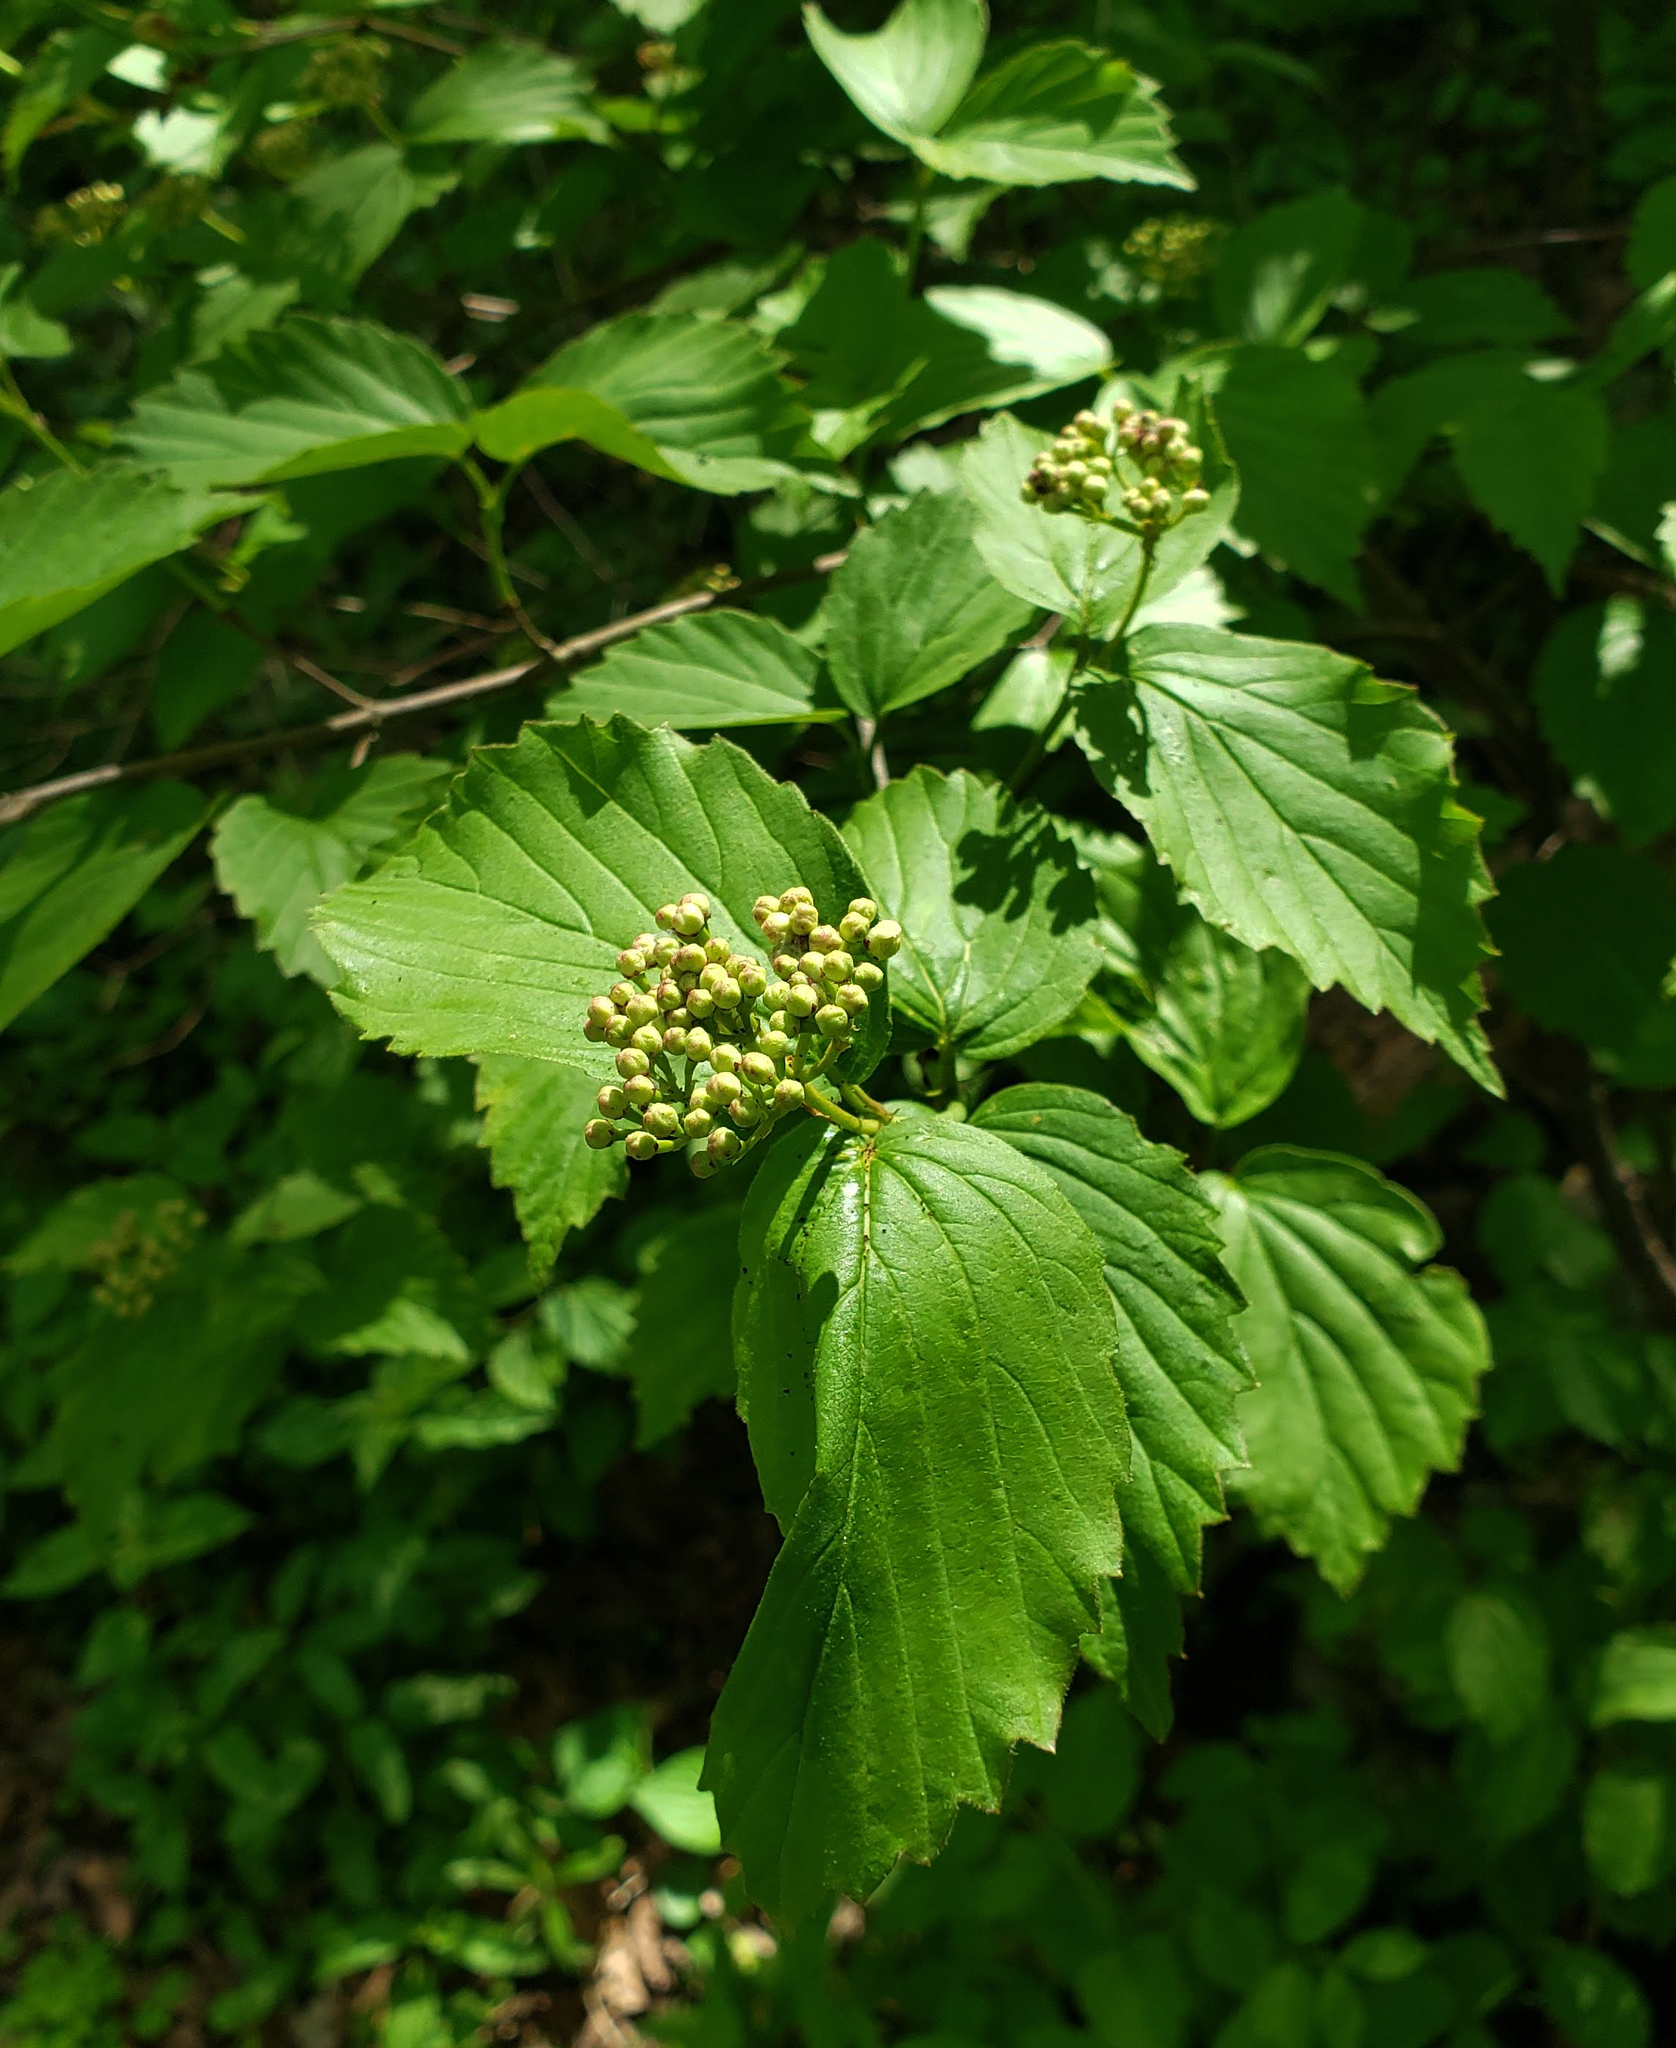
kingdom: Plantae
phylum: Tracheophyta
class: Magnoliopsida
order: Dipsacales
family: Viburnaceae
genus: Viburnum
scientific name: Viburnum rafinesqueanum
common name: Downy arrow-wood
